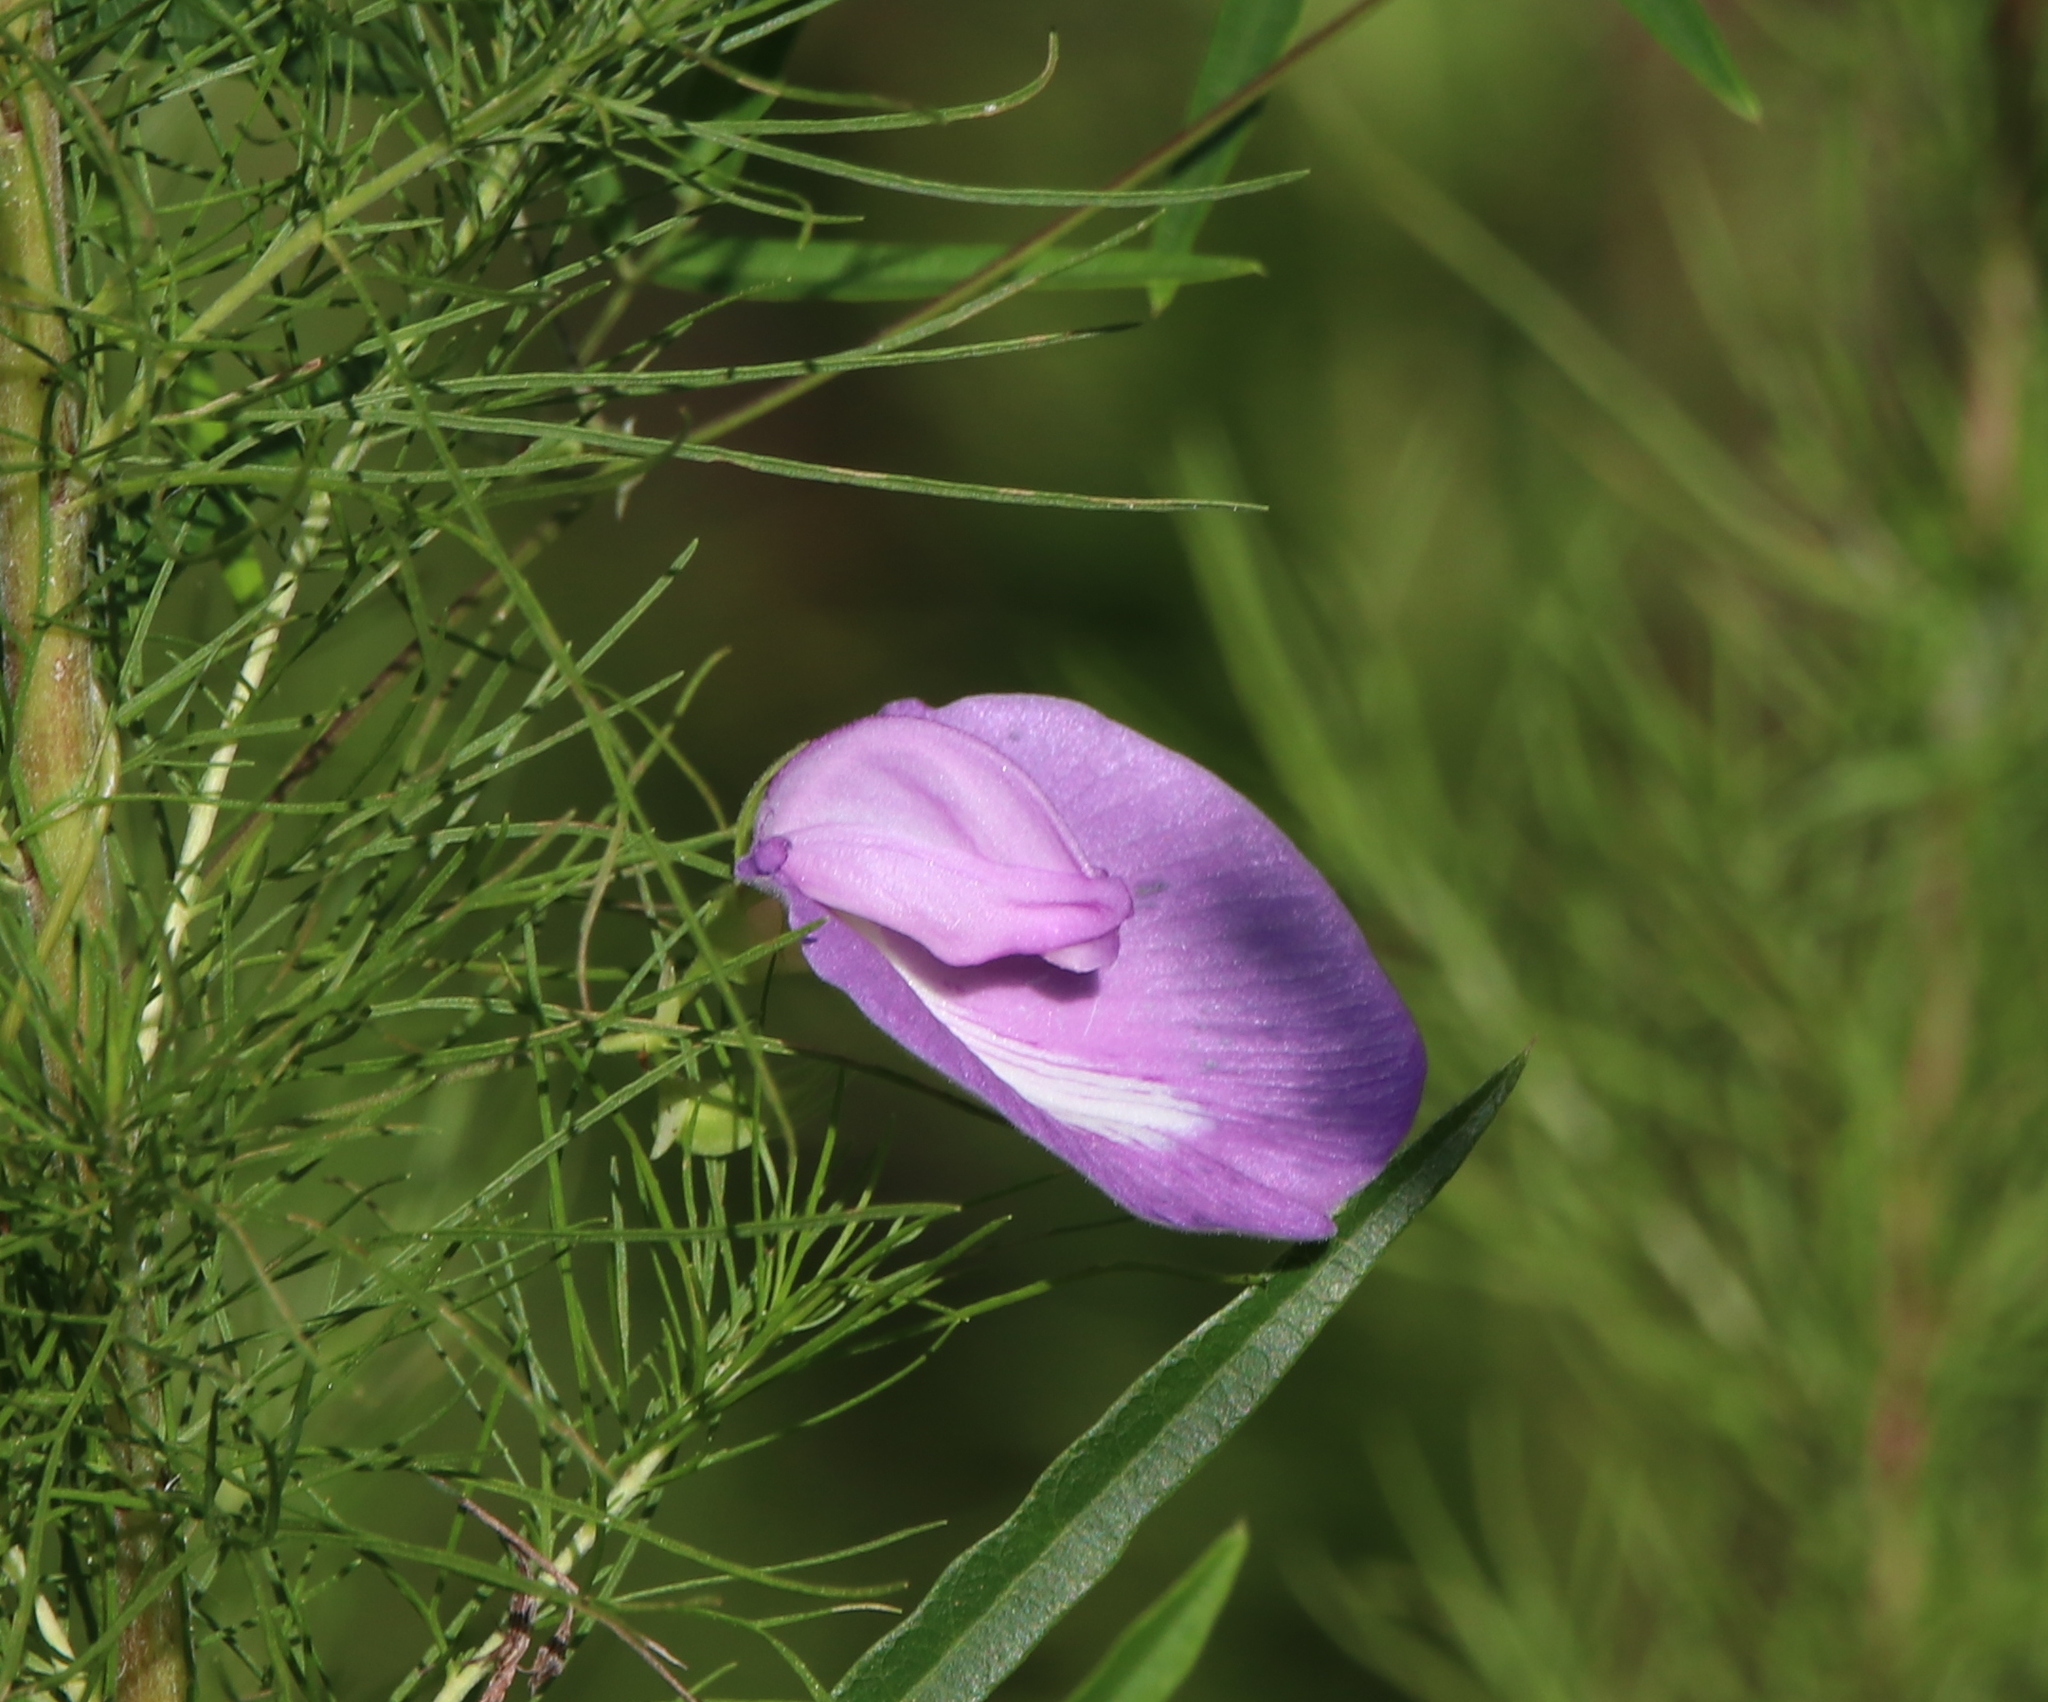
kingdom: Plantae
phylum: Tracheophyta
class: Magnoliopsida
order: Fabales
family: Fabaceae
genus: Centrosema
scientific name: Centrosema virginianum
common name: Butterfly-pea
